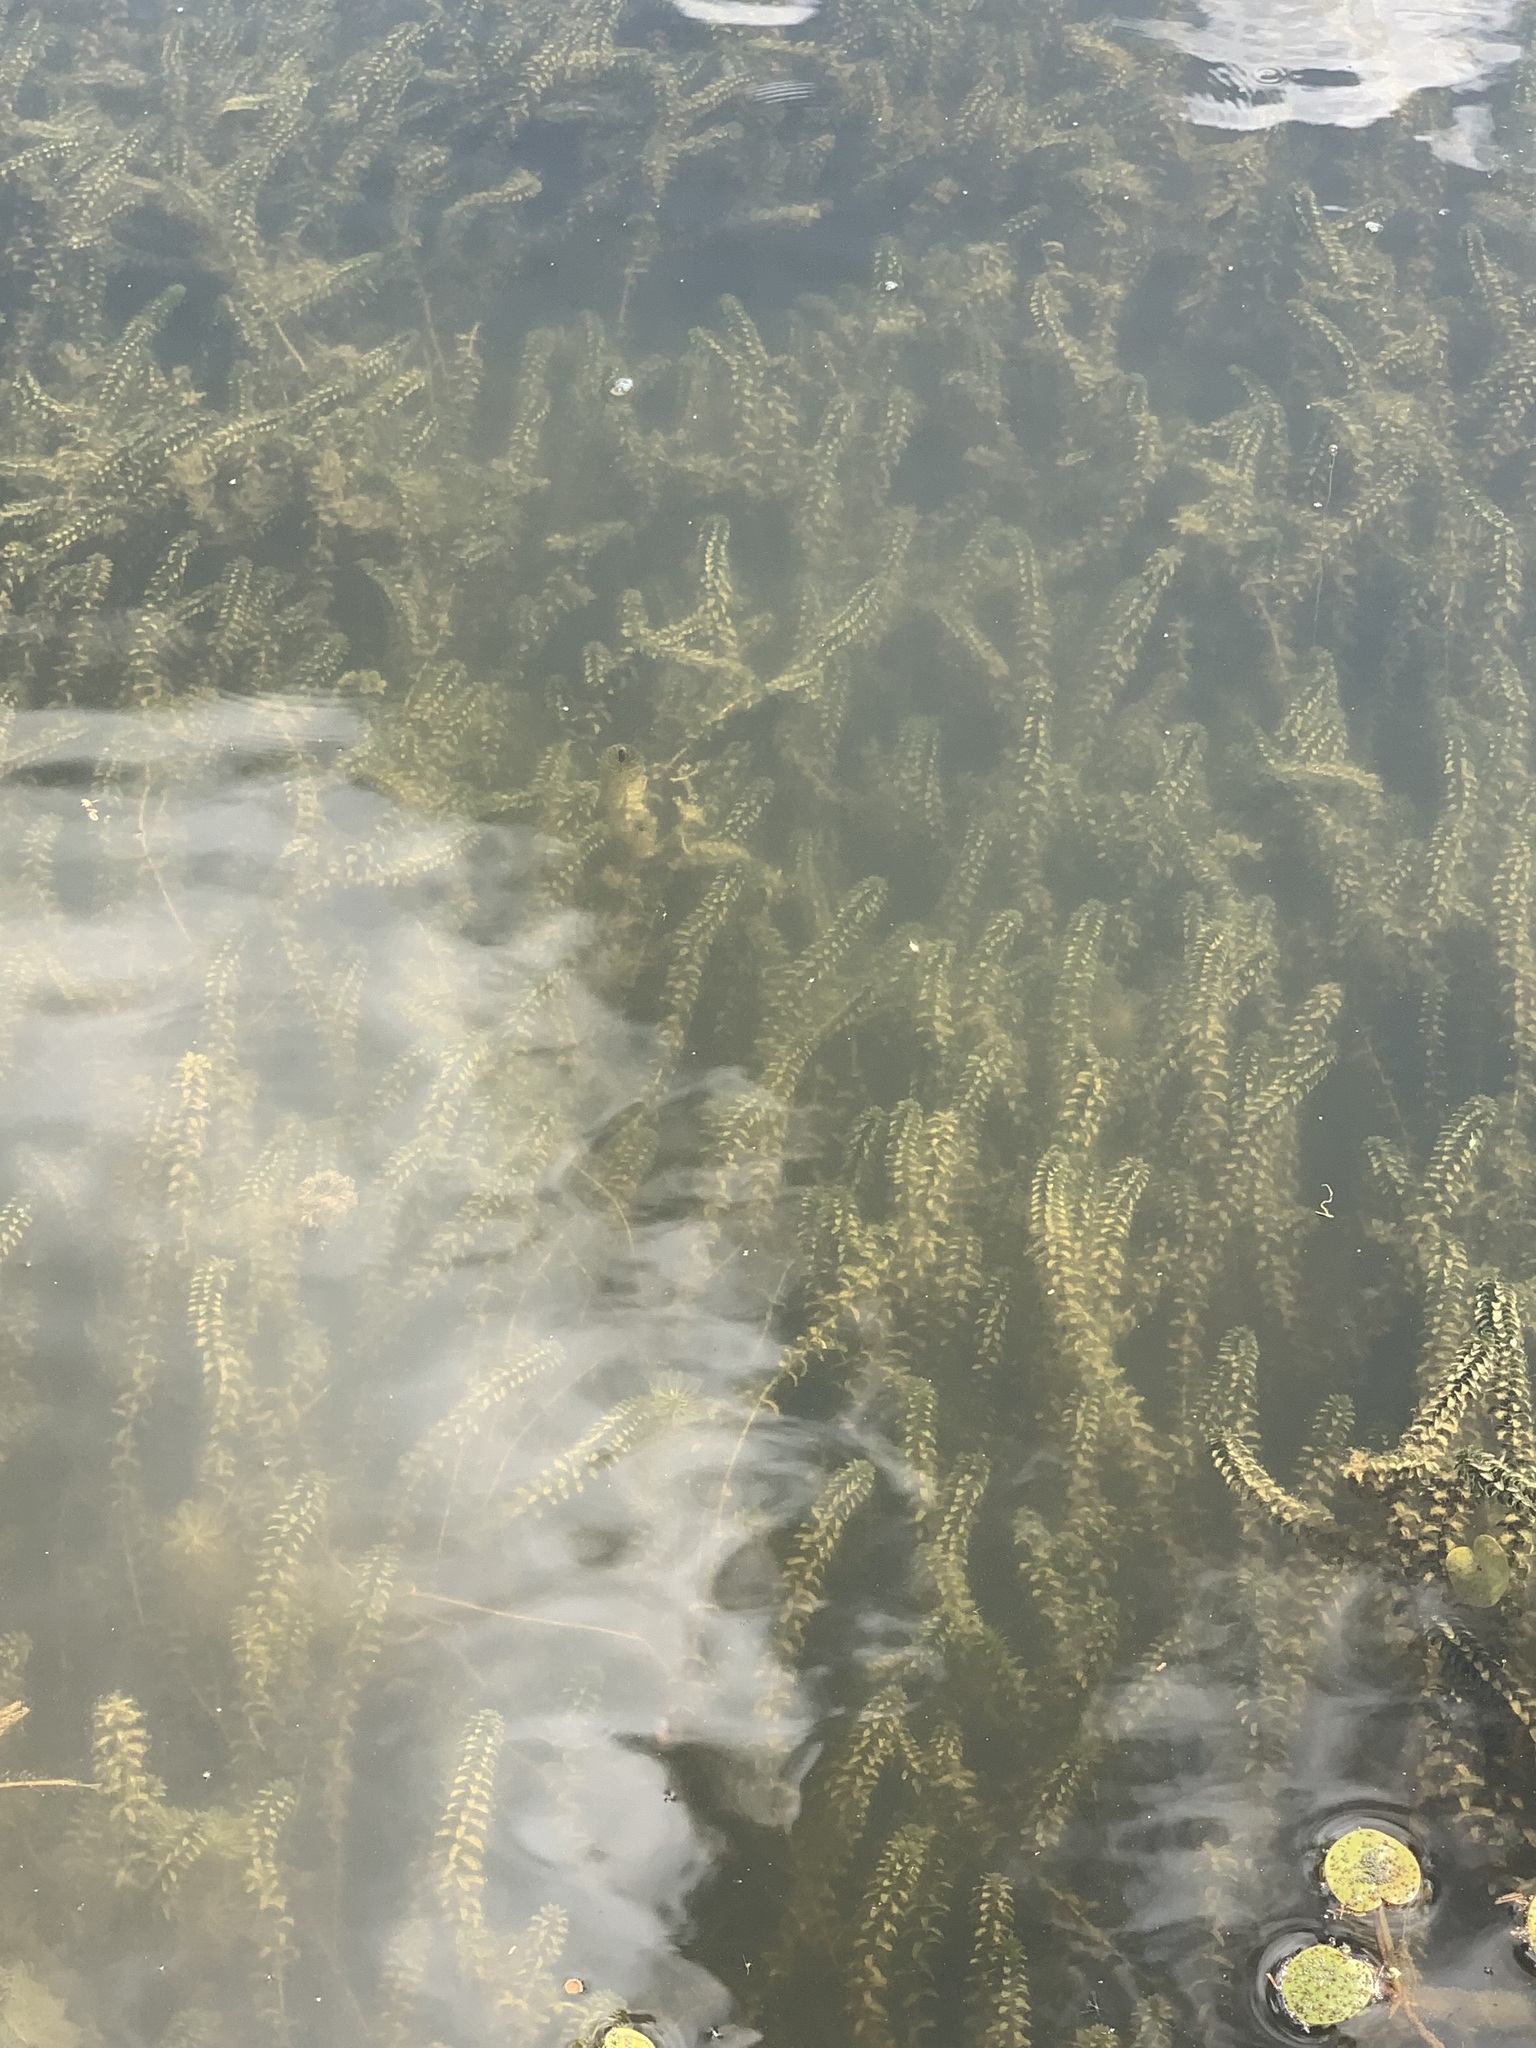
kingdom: Plantae
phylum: Tracheophyta
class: Liliopsida
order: Alismatales
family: Hydrocharitaceae
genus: Elodea
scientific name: Elodea canadensis
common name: Canadian waterweed
